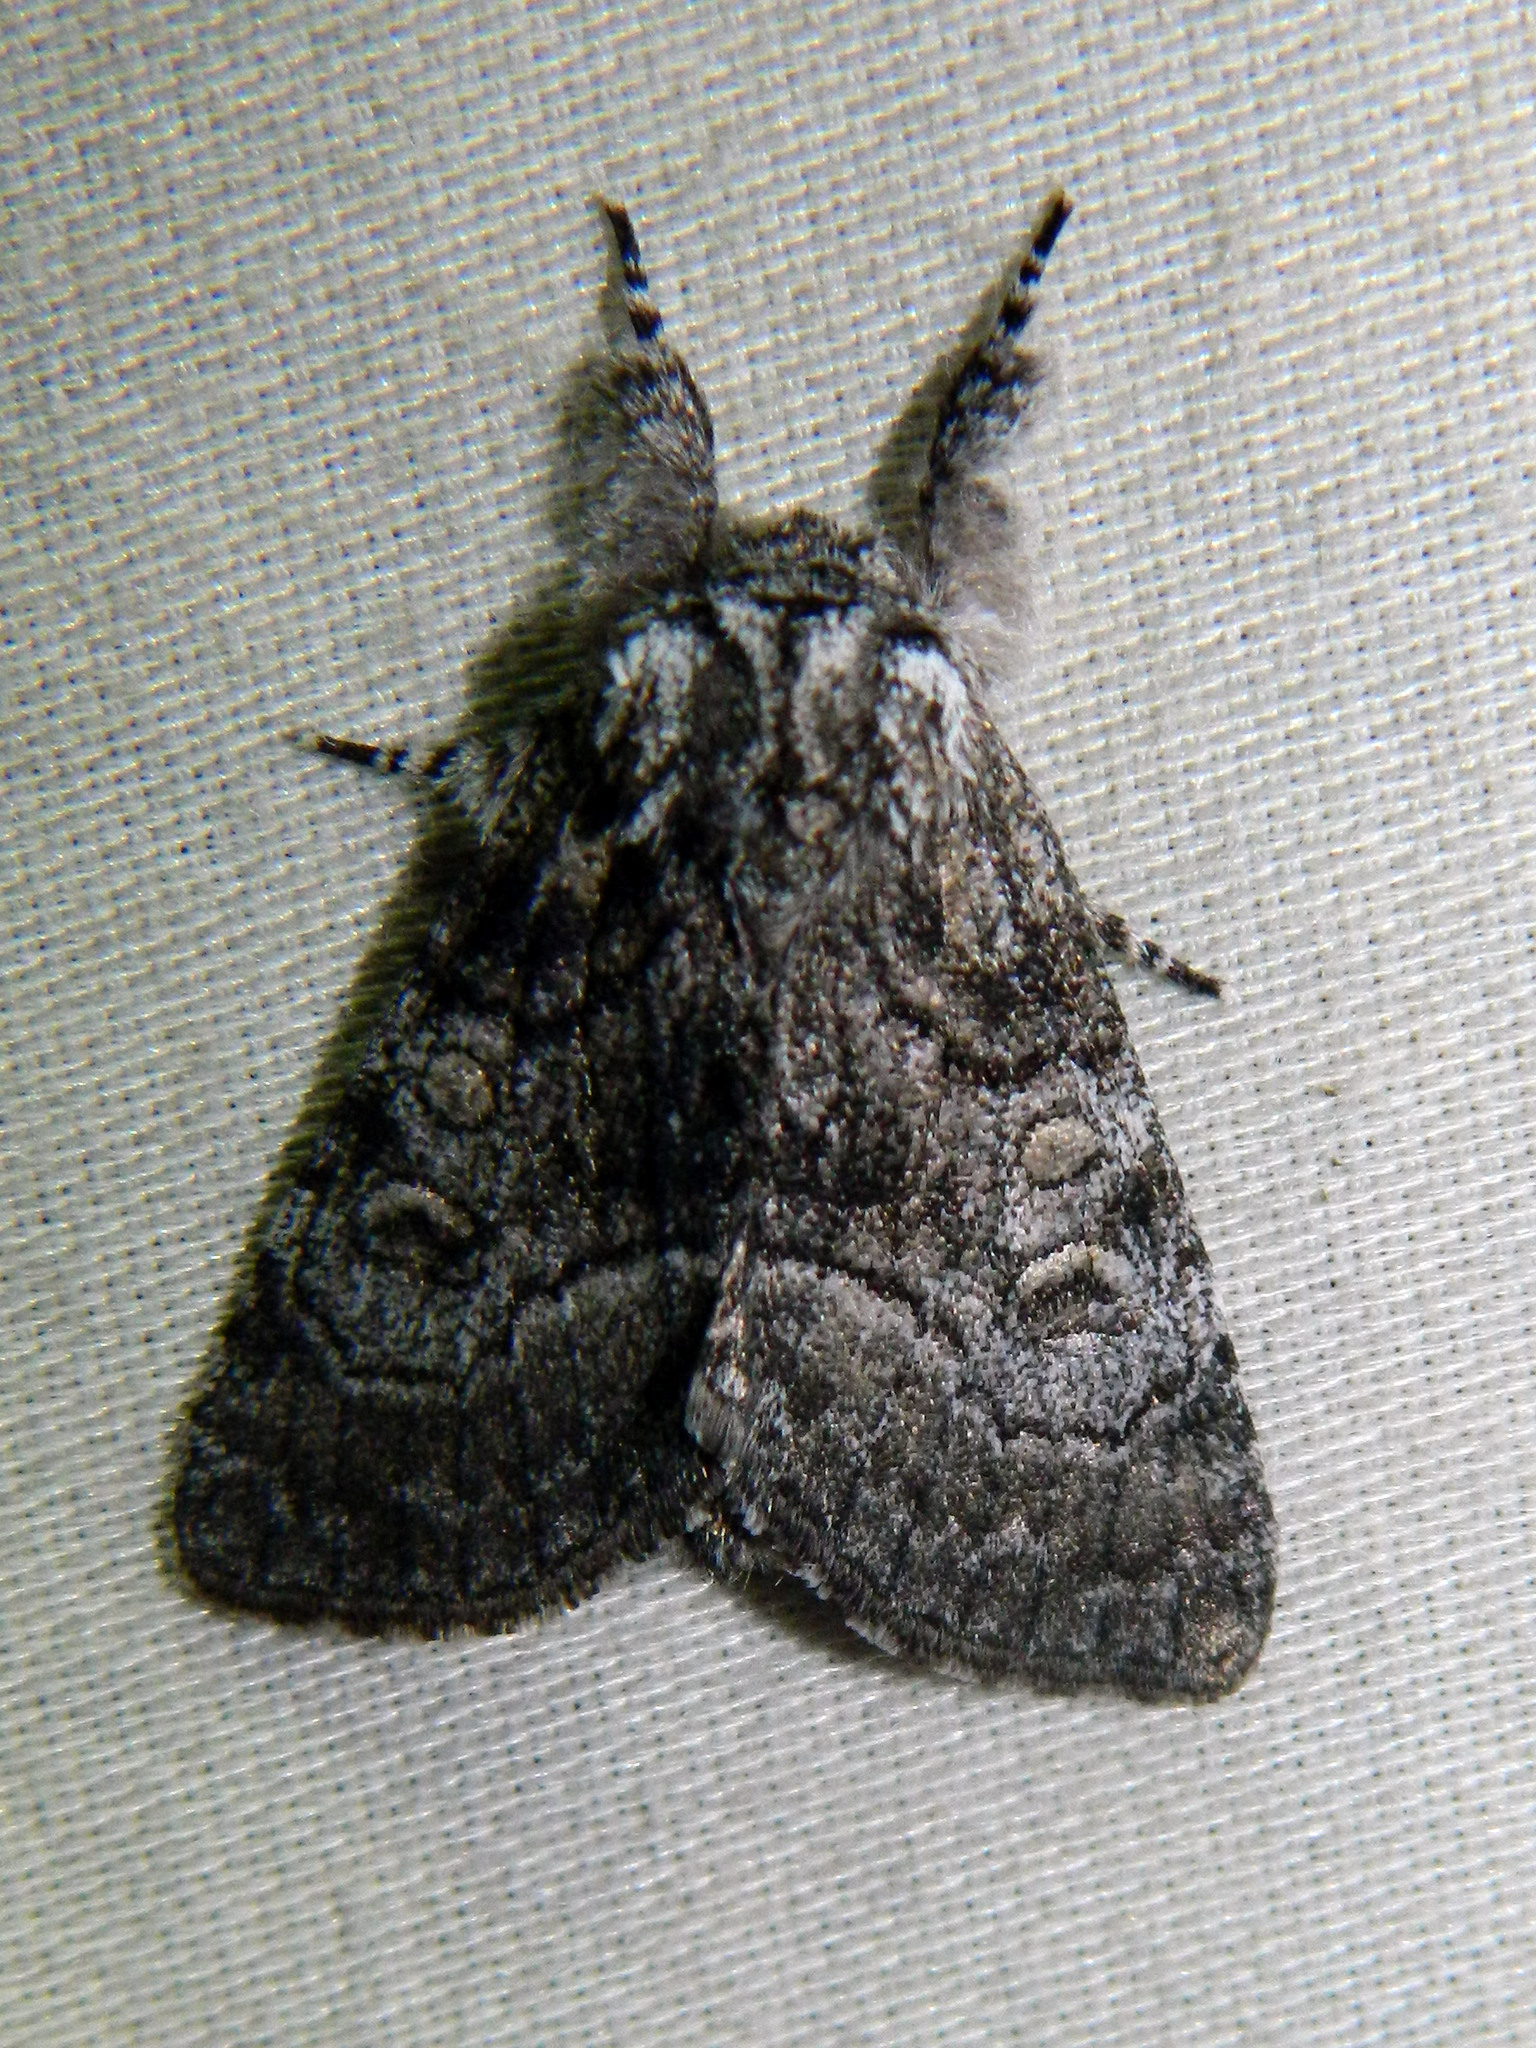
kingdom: Animalia
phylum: Arthropoda
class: Insecta
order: Lepidoptera
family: Noctuidae
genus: Raphia
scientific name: Raphia frater
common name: Brother
